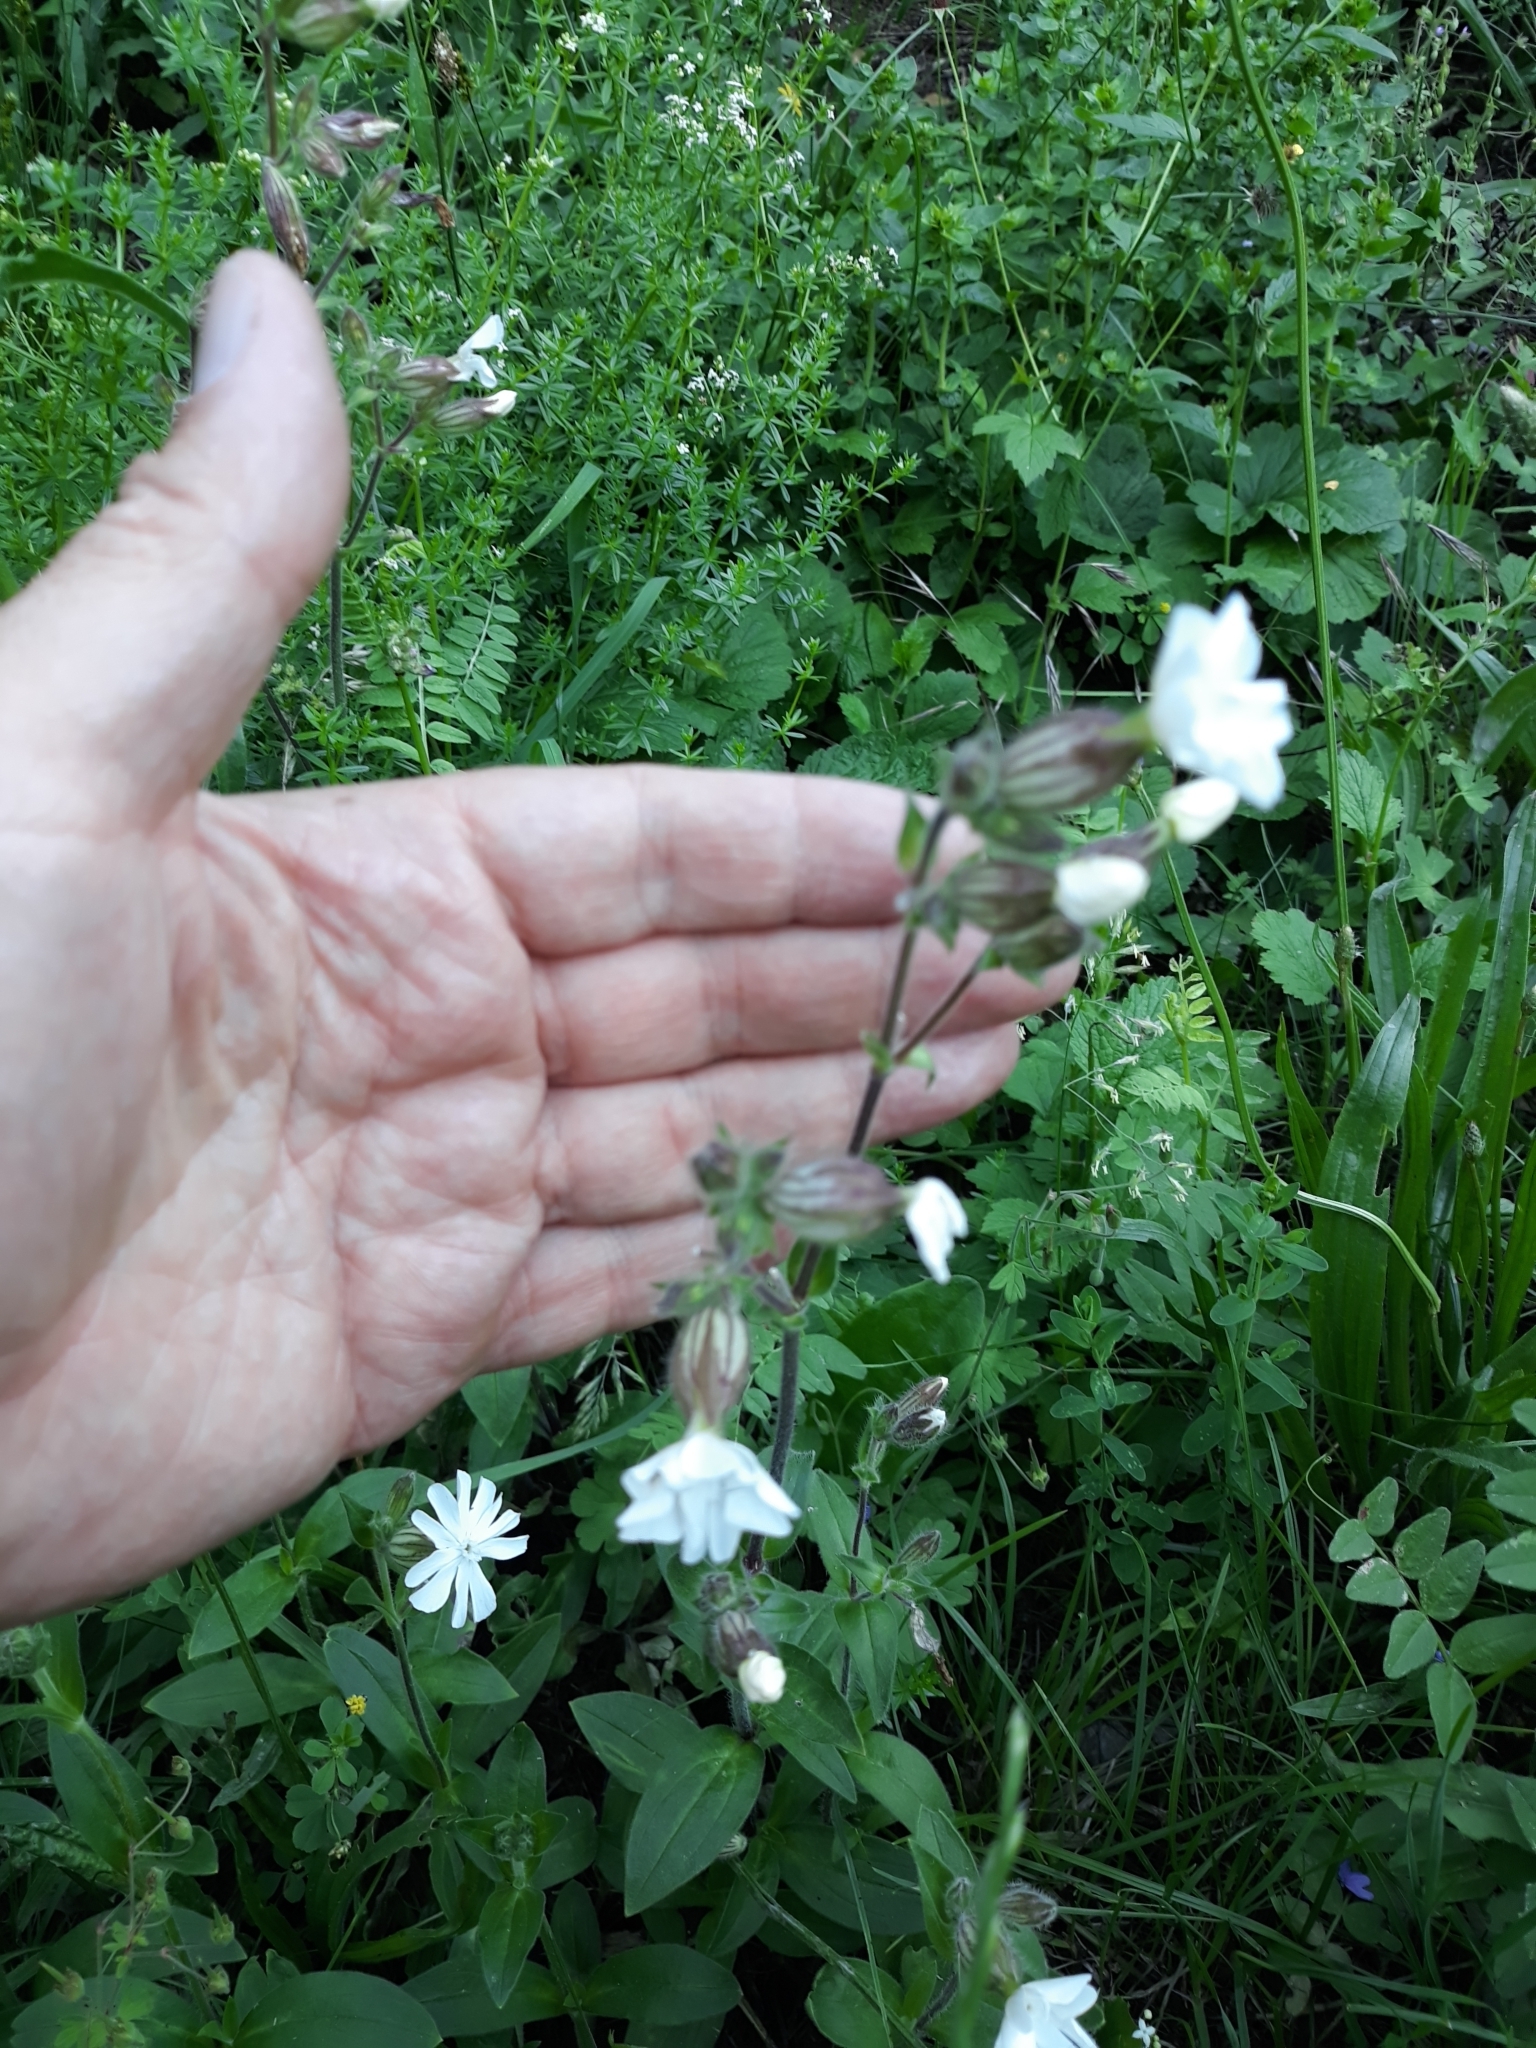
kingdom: Plantae
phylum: Tracheophyta
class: Magnoliopsida
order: Caryophyllales
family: Caryophyllaceae
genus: Silene
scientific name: Silene latifolia
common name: White campion
